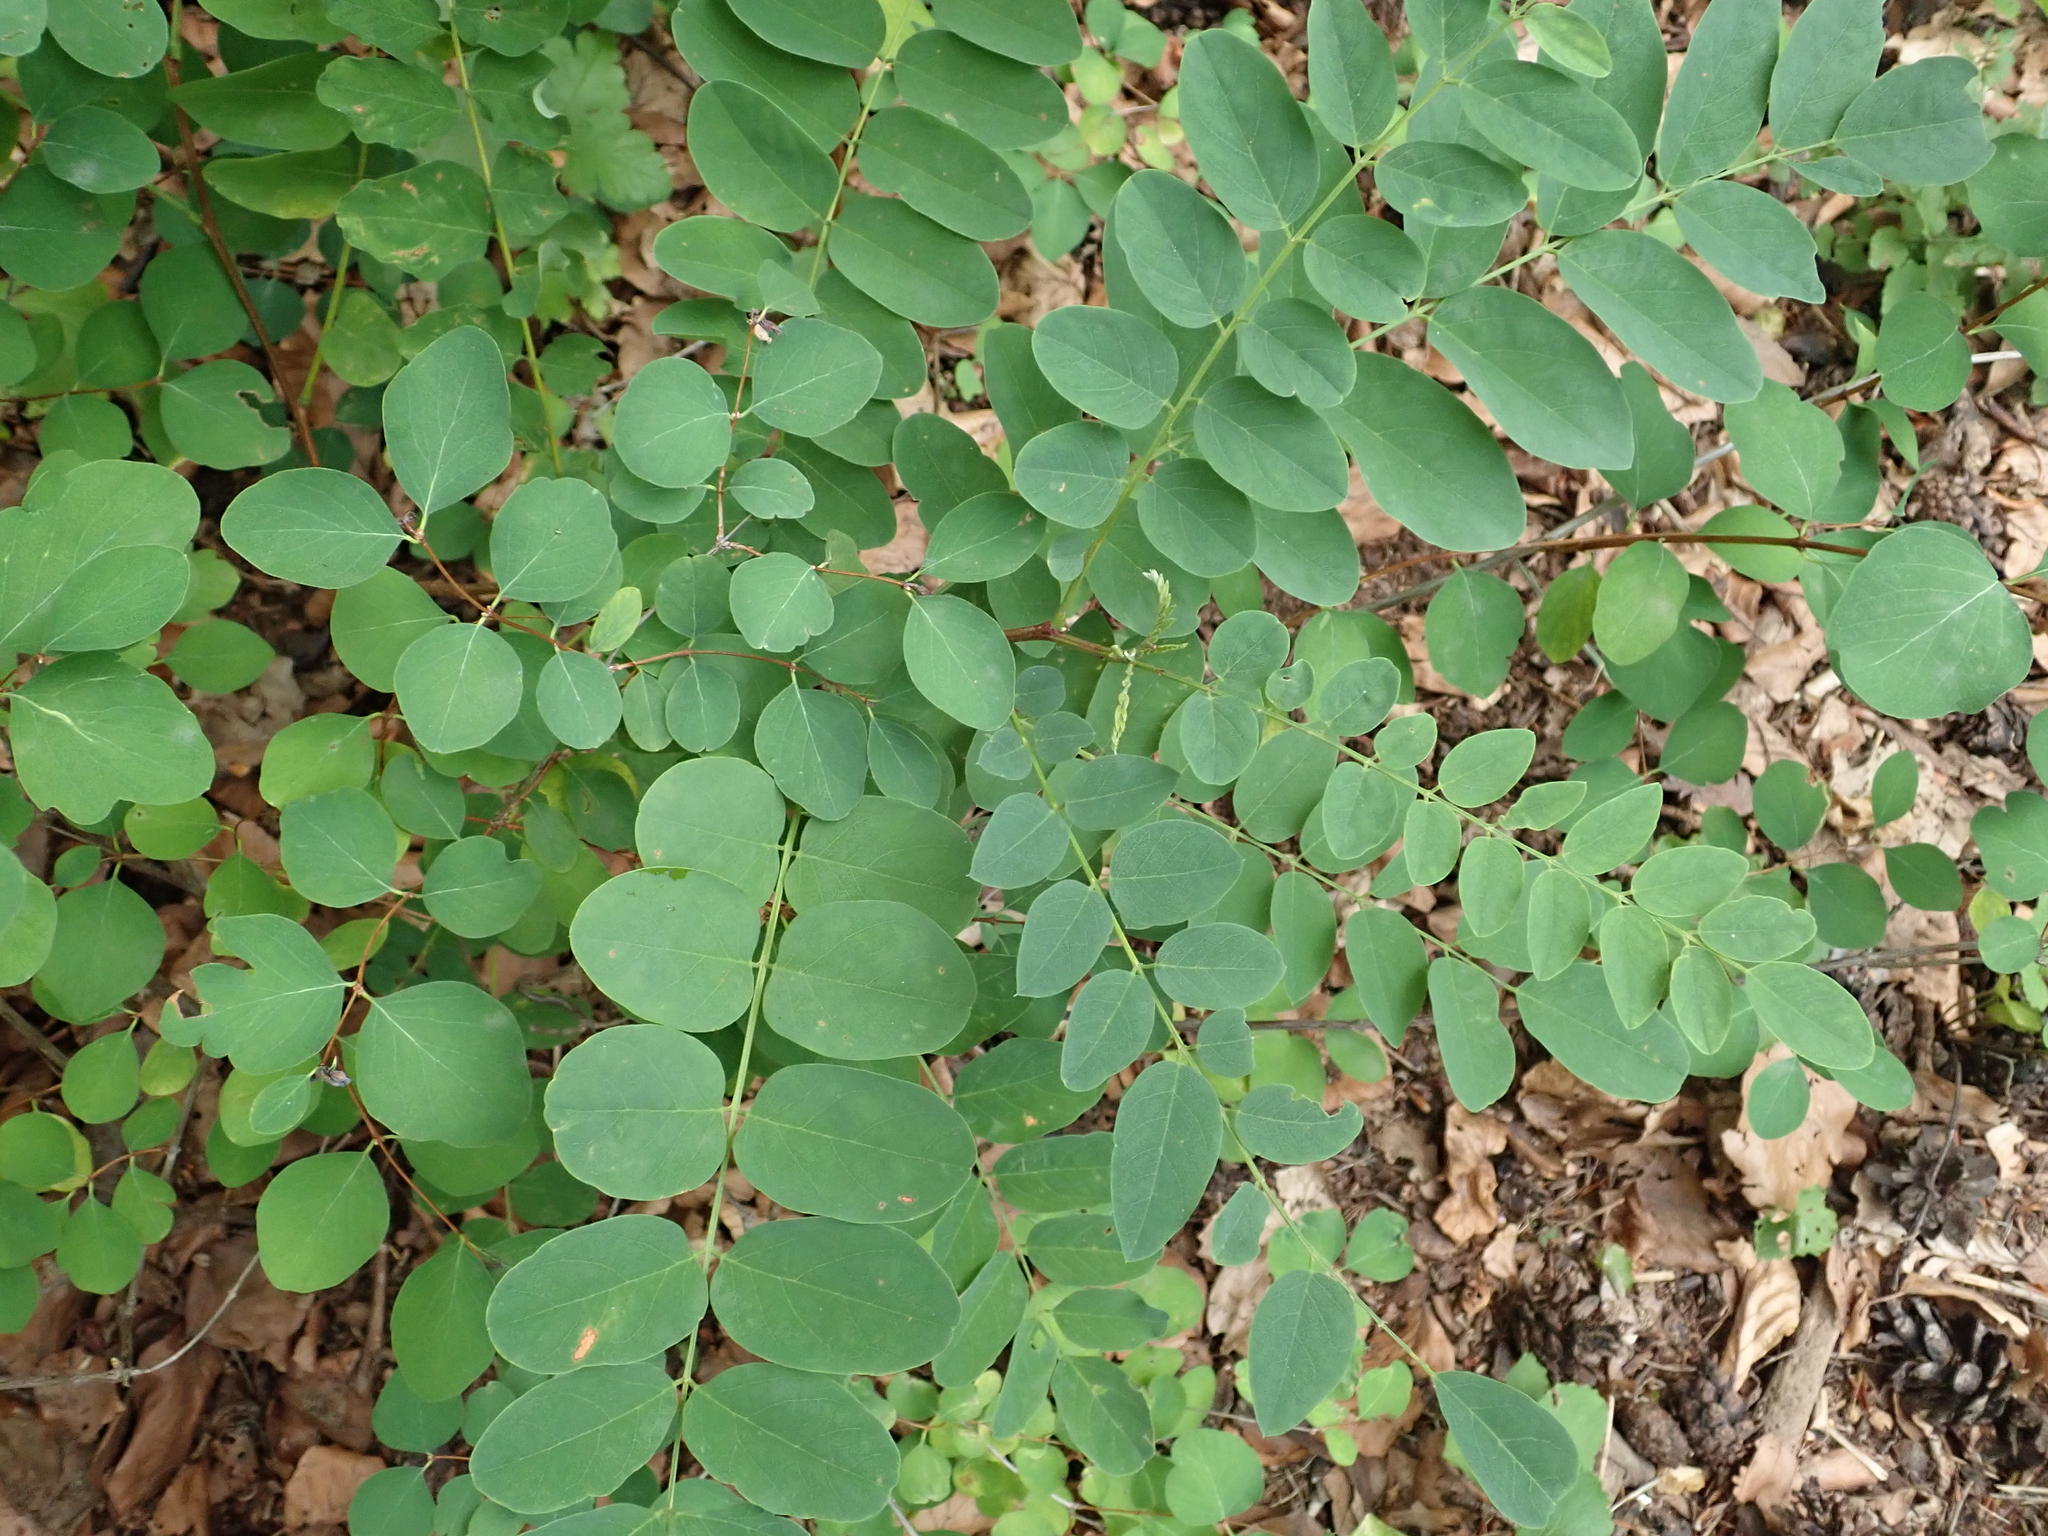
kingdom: Plantae
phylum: Tracheophyta
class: Magnoliopsida
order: Fabales
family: Fabaceae
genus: Robinia
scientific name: Robinia pseudoacacia
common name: Black locust
